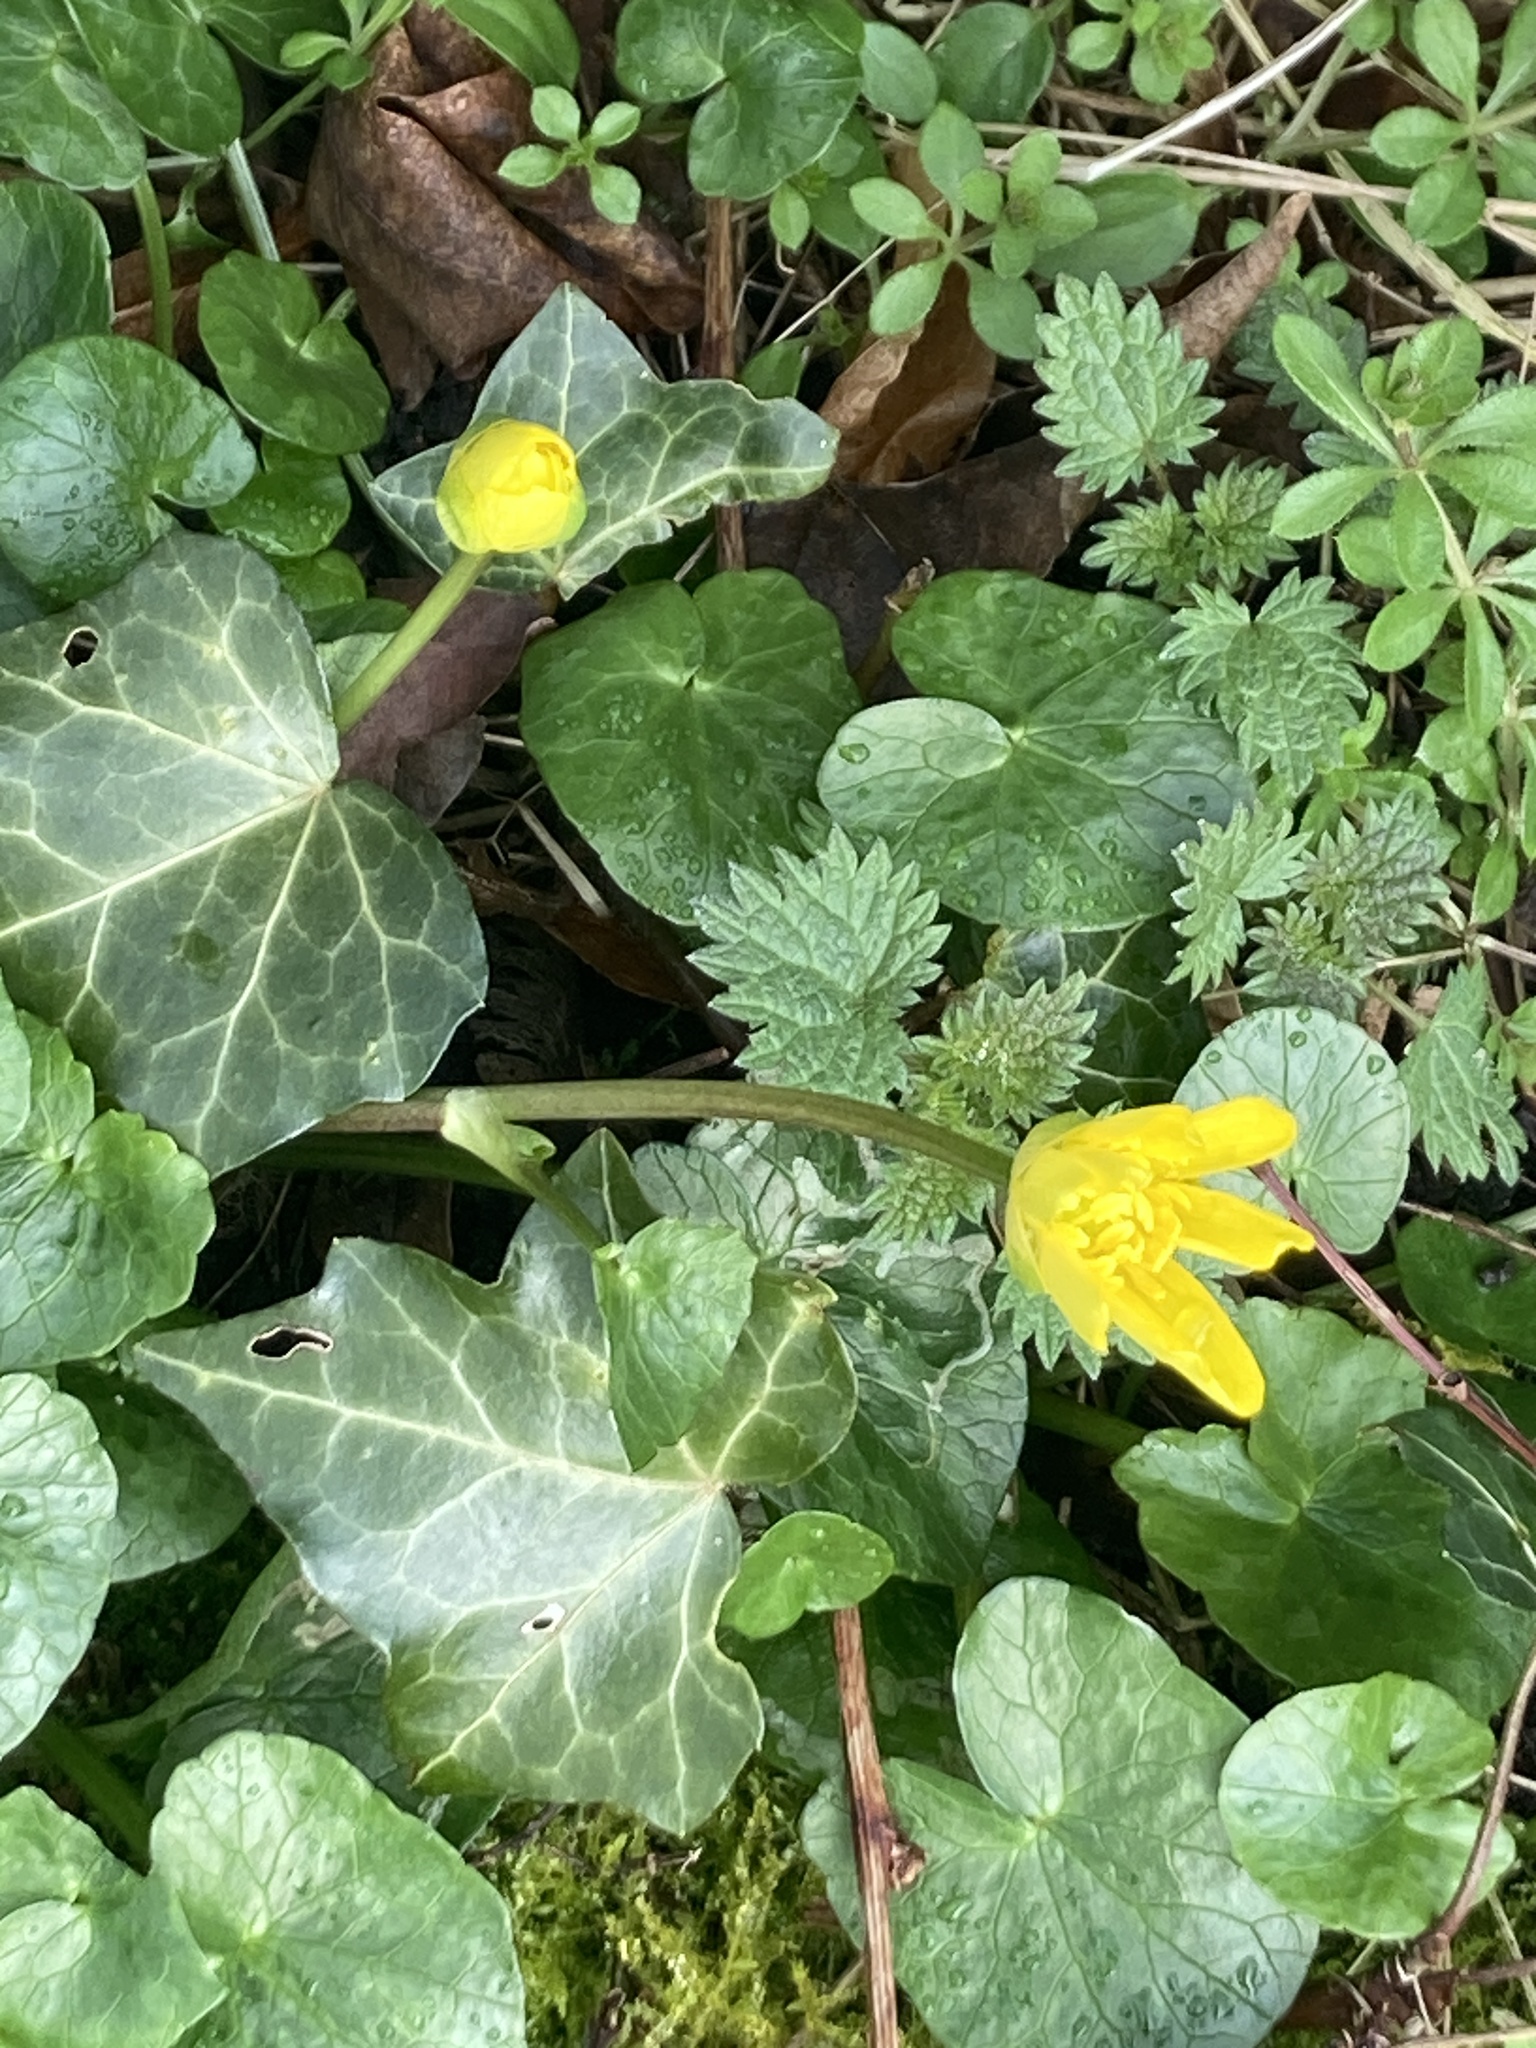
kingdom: Plantae
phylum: Tracheophyta
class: Magnoliopsida
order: Ranunculales
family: Ranunculaceae
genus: Ficaria
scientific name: Ficaria verna
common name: Lesser celandine
